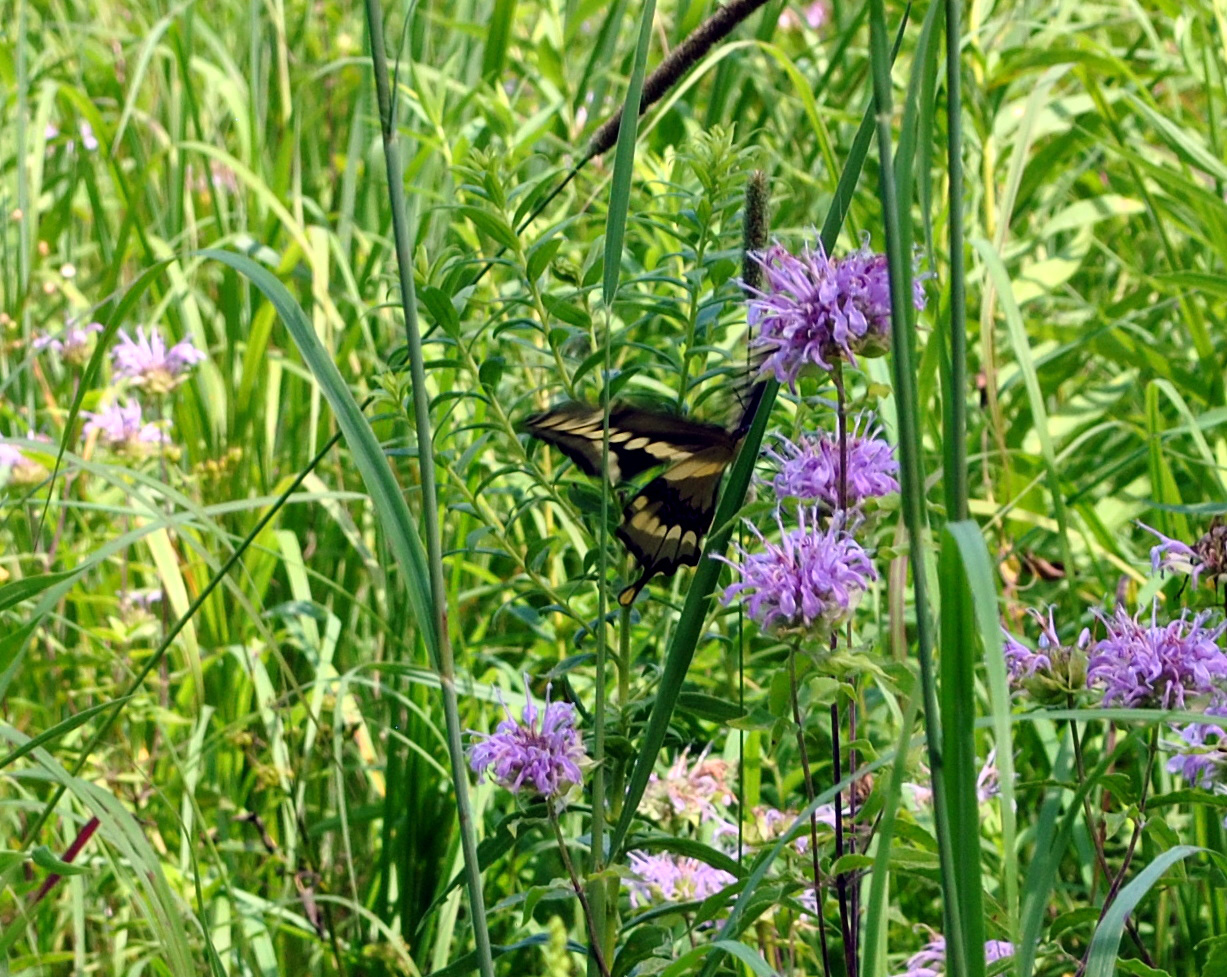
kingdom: Animalia
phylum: Arthropoda
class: Insecta
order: Lepidoptera
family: Papilionidae
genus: Papilio
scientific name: Papilio cresphontes
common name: Giant swallowtail
